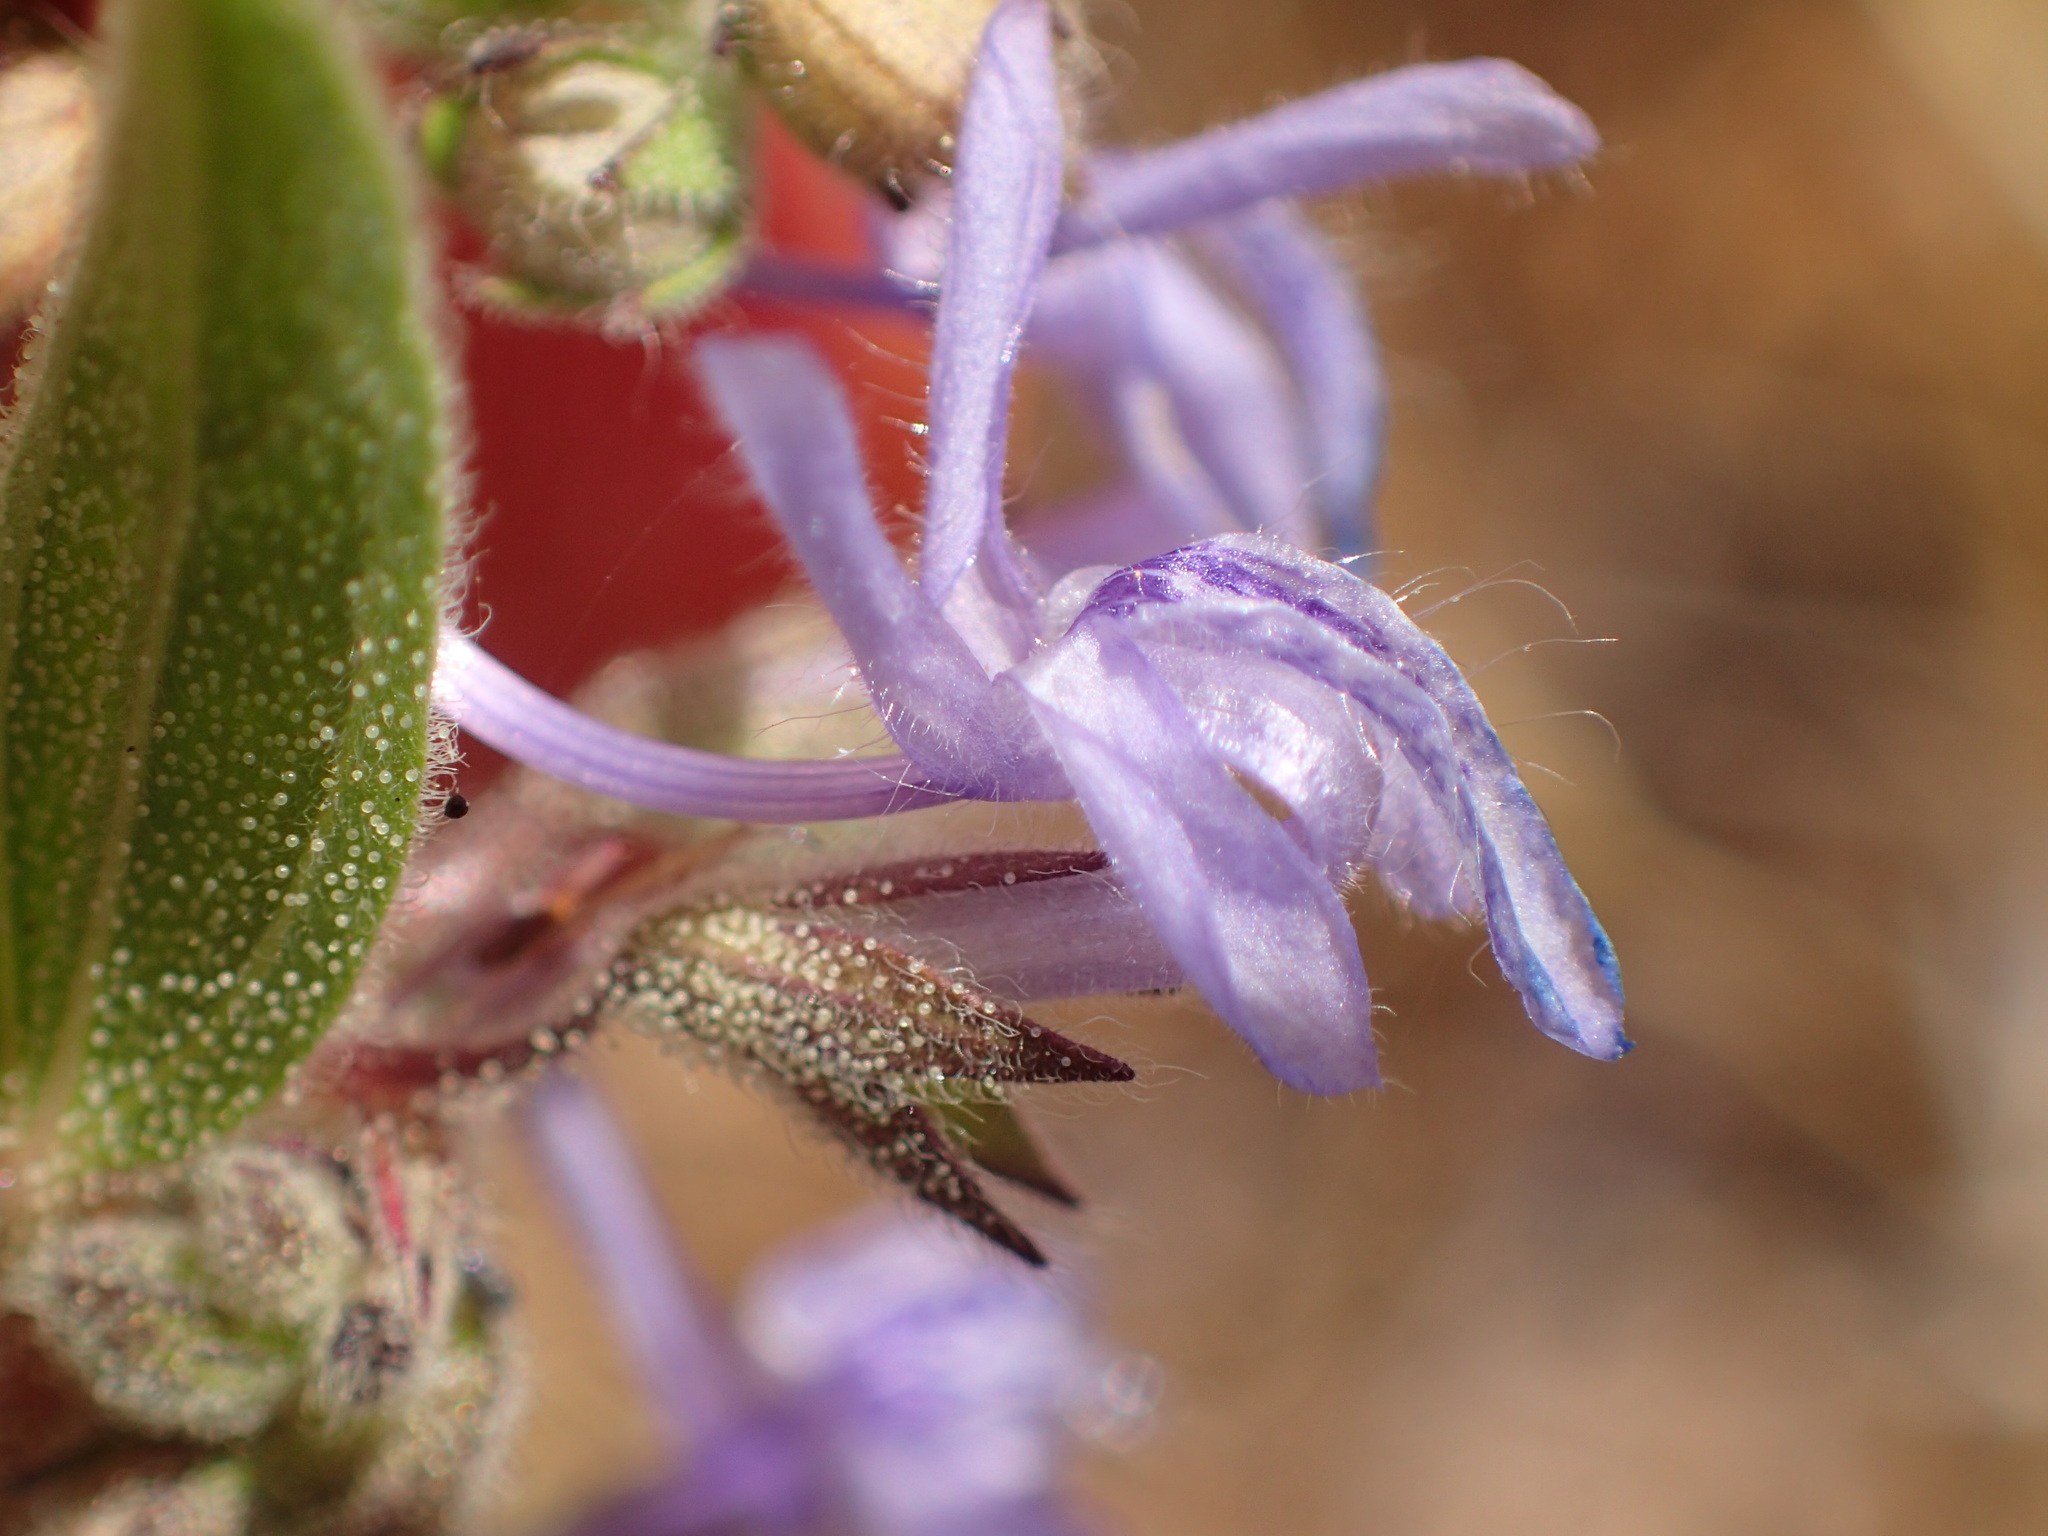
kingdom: Plantae
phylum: Tracheophyta
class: Magnoliopsida
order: Lamiales
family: Lamiaceae
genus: Trichostema
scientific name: Trichostema lanceolatum
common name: Vinegar-weed
